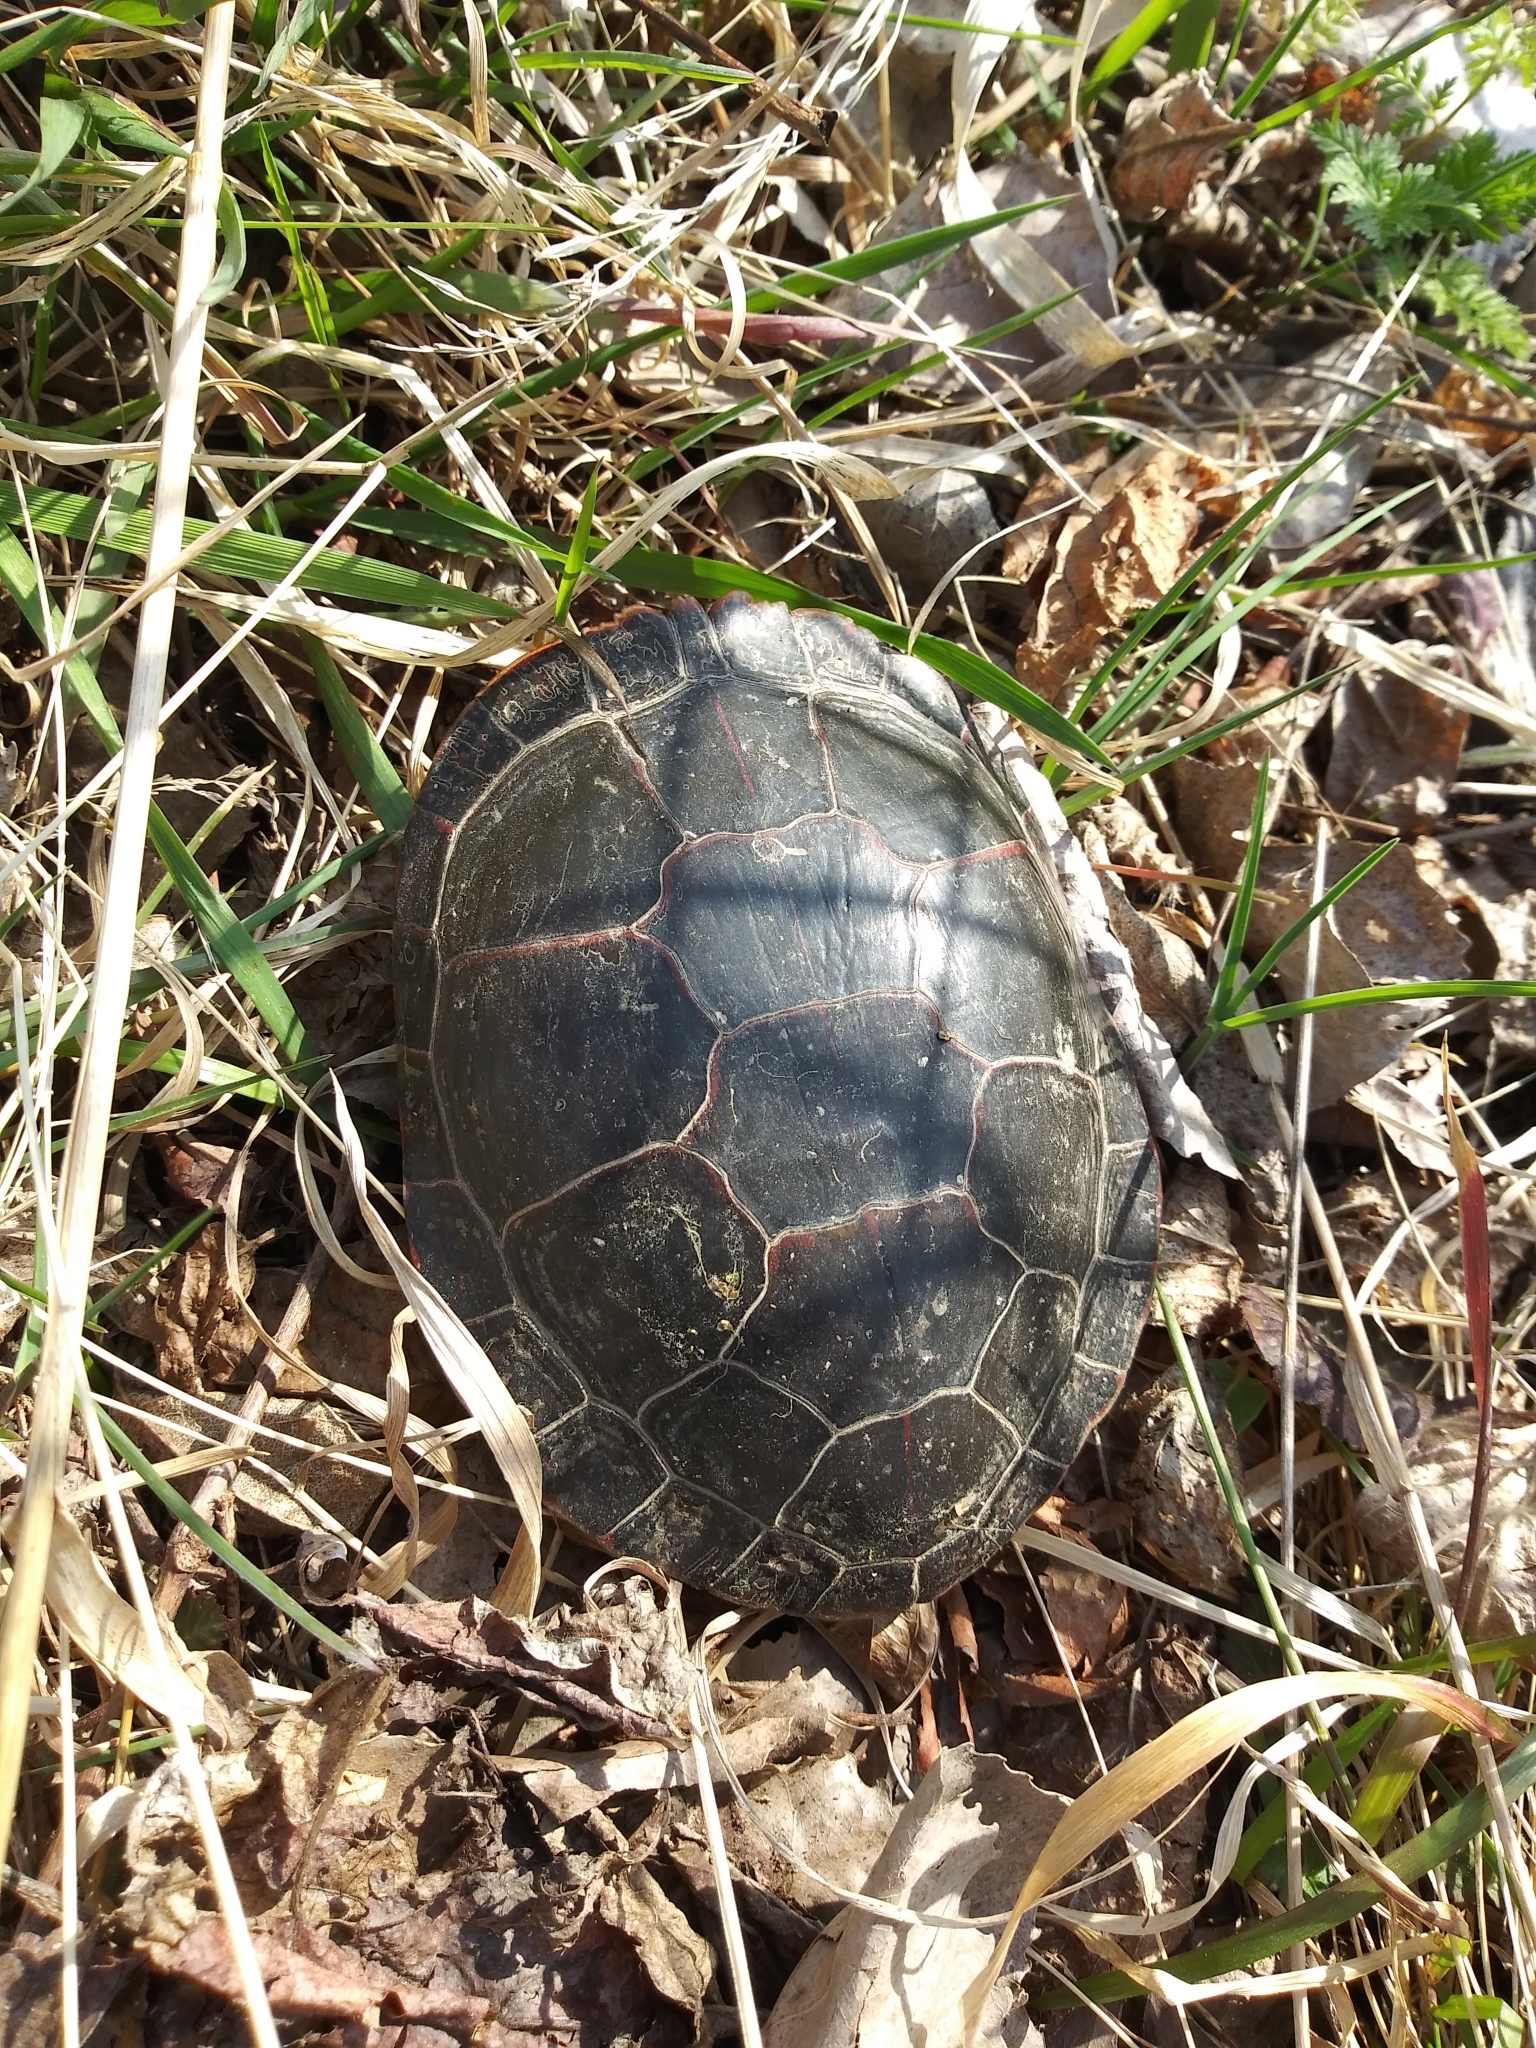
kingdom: Animalia
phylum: Chordata
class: Testudines
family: Emydidae
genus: Chrysemys
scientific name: Chrysemys picta
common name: Painted turtle
